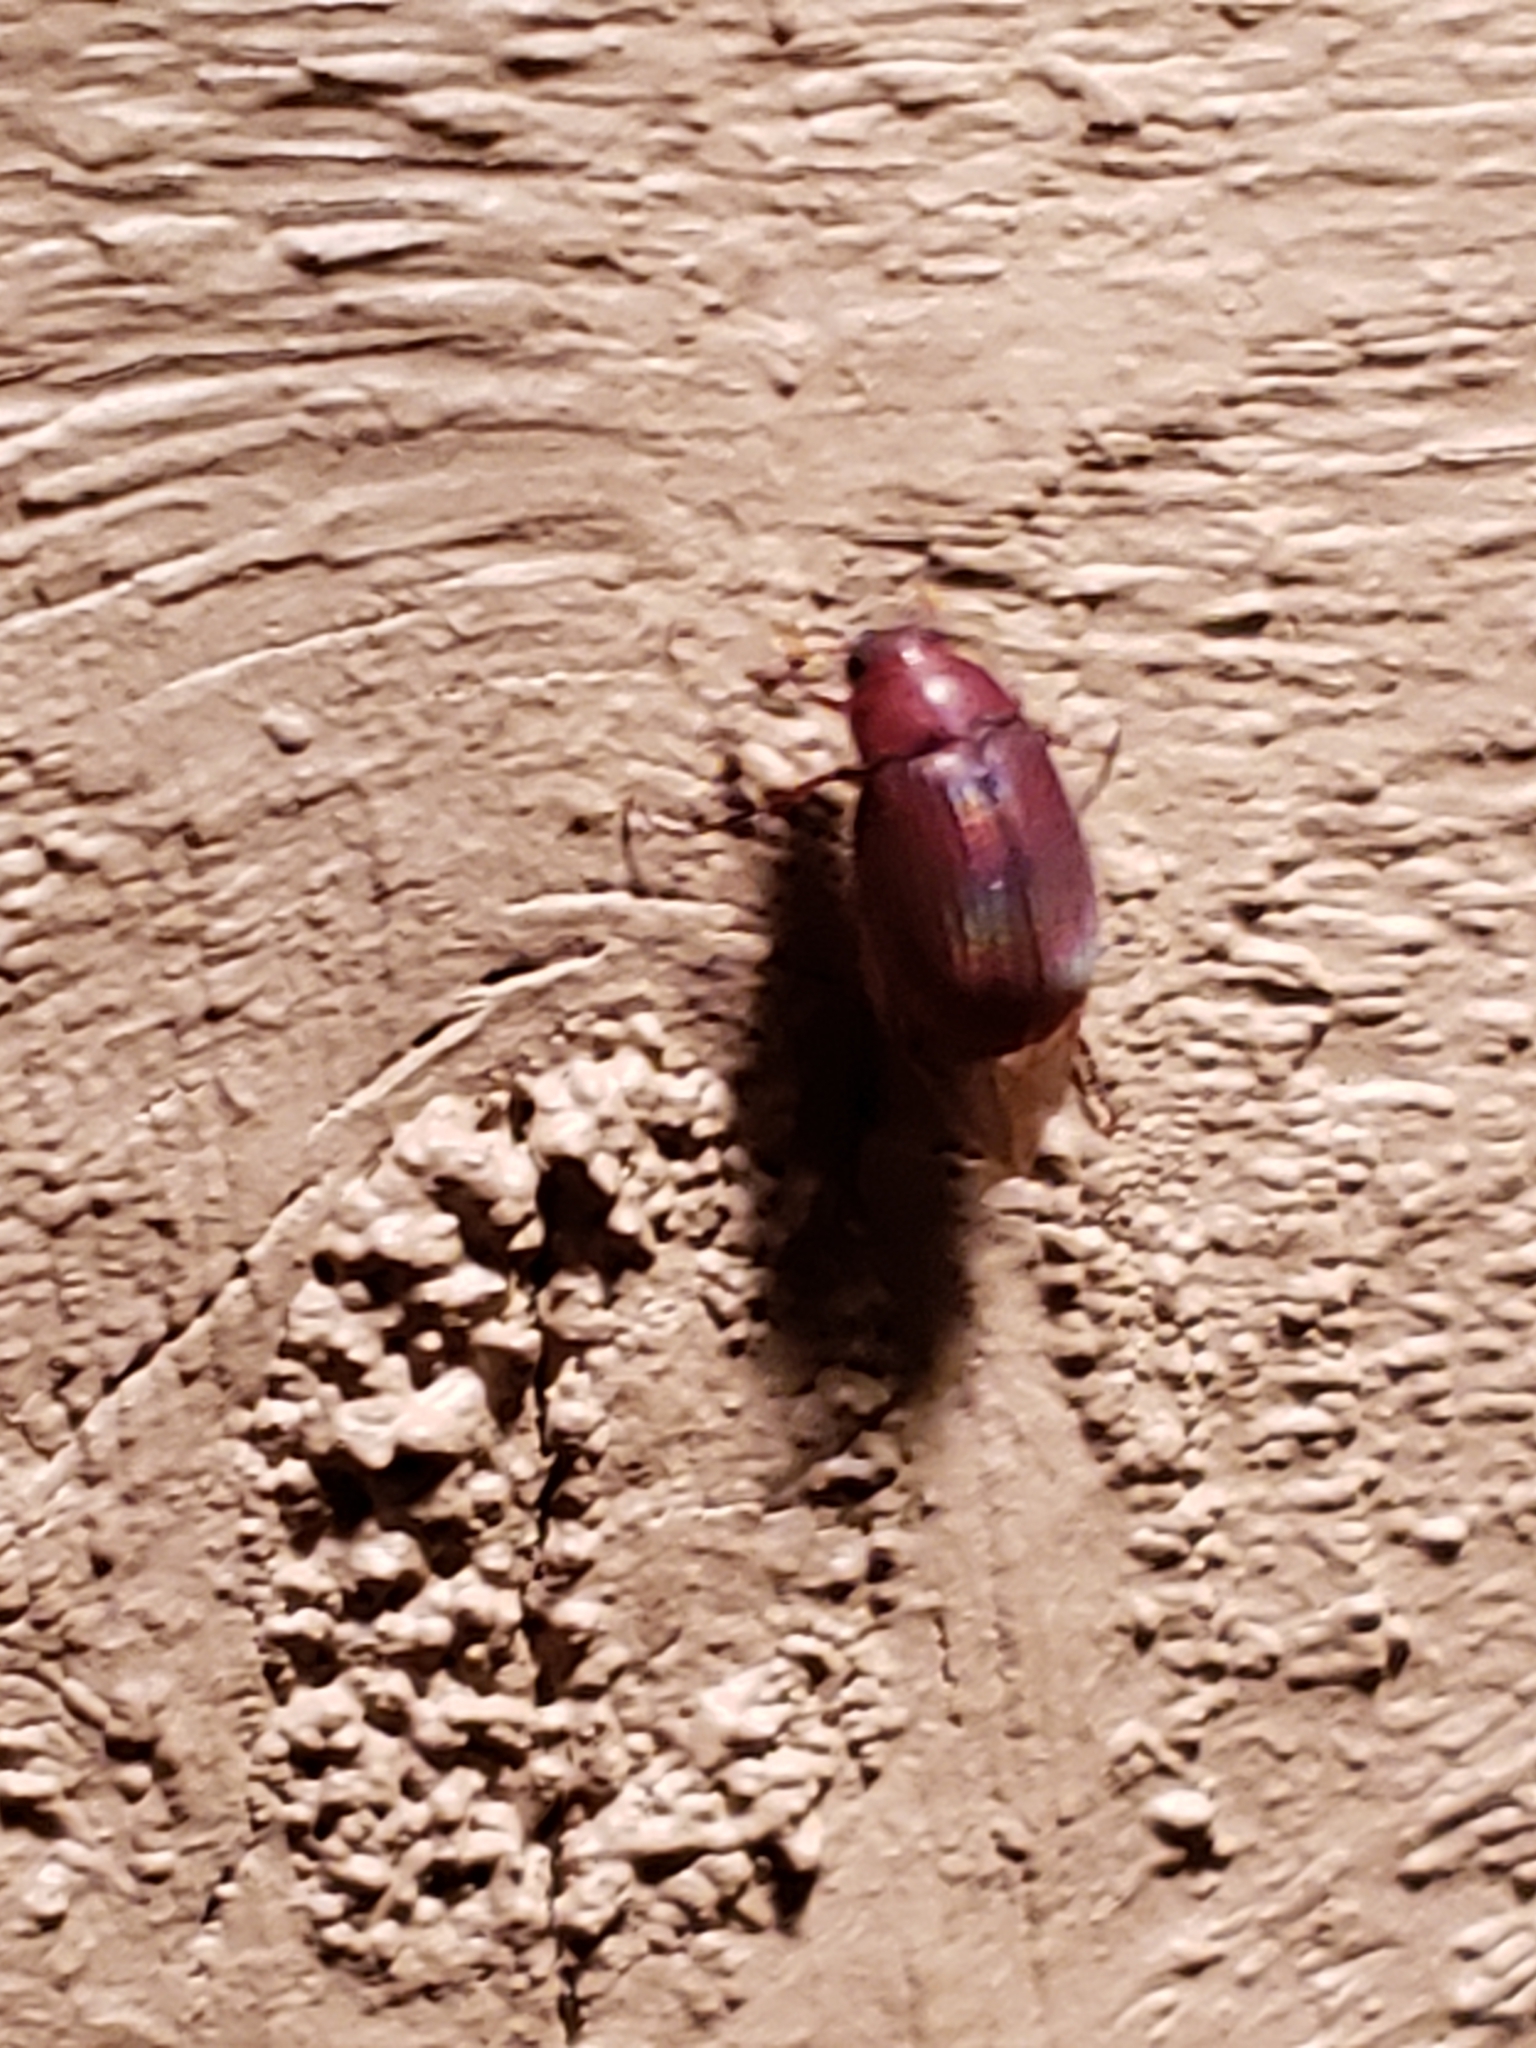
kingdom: Animalia
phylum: Arthropoda
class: Insecta
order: Coleoptera
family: Scarabaeidae
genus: Maladera
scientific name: Maladera formosae
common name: Asiatic garden beetle
